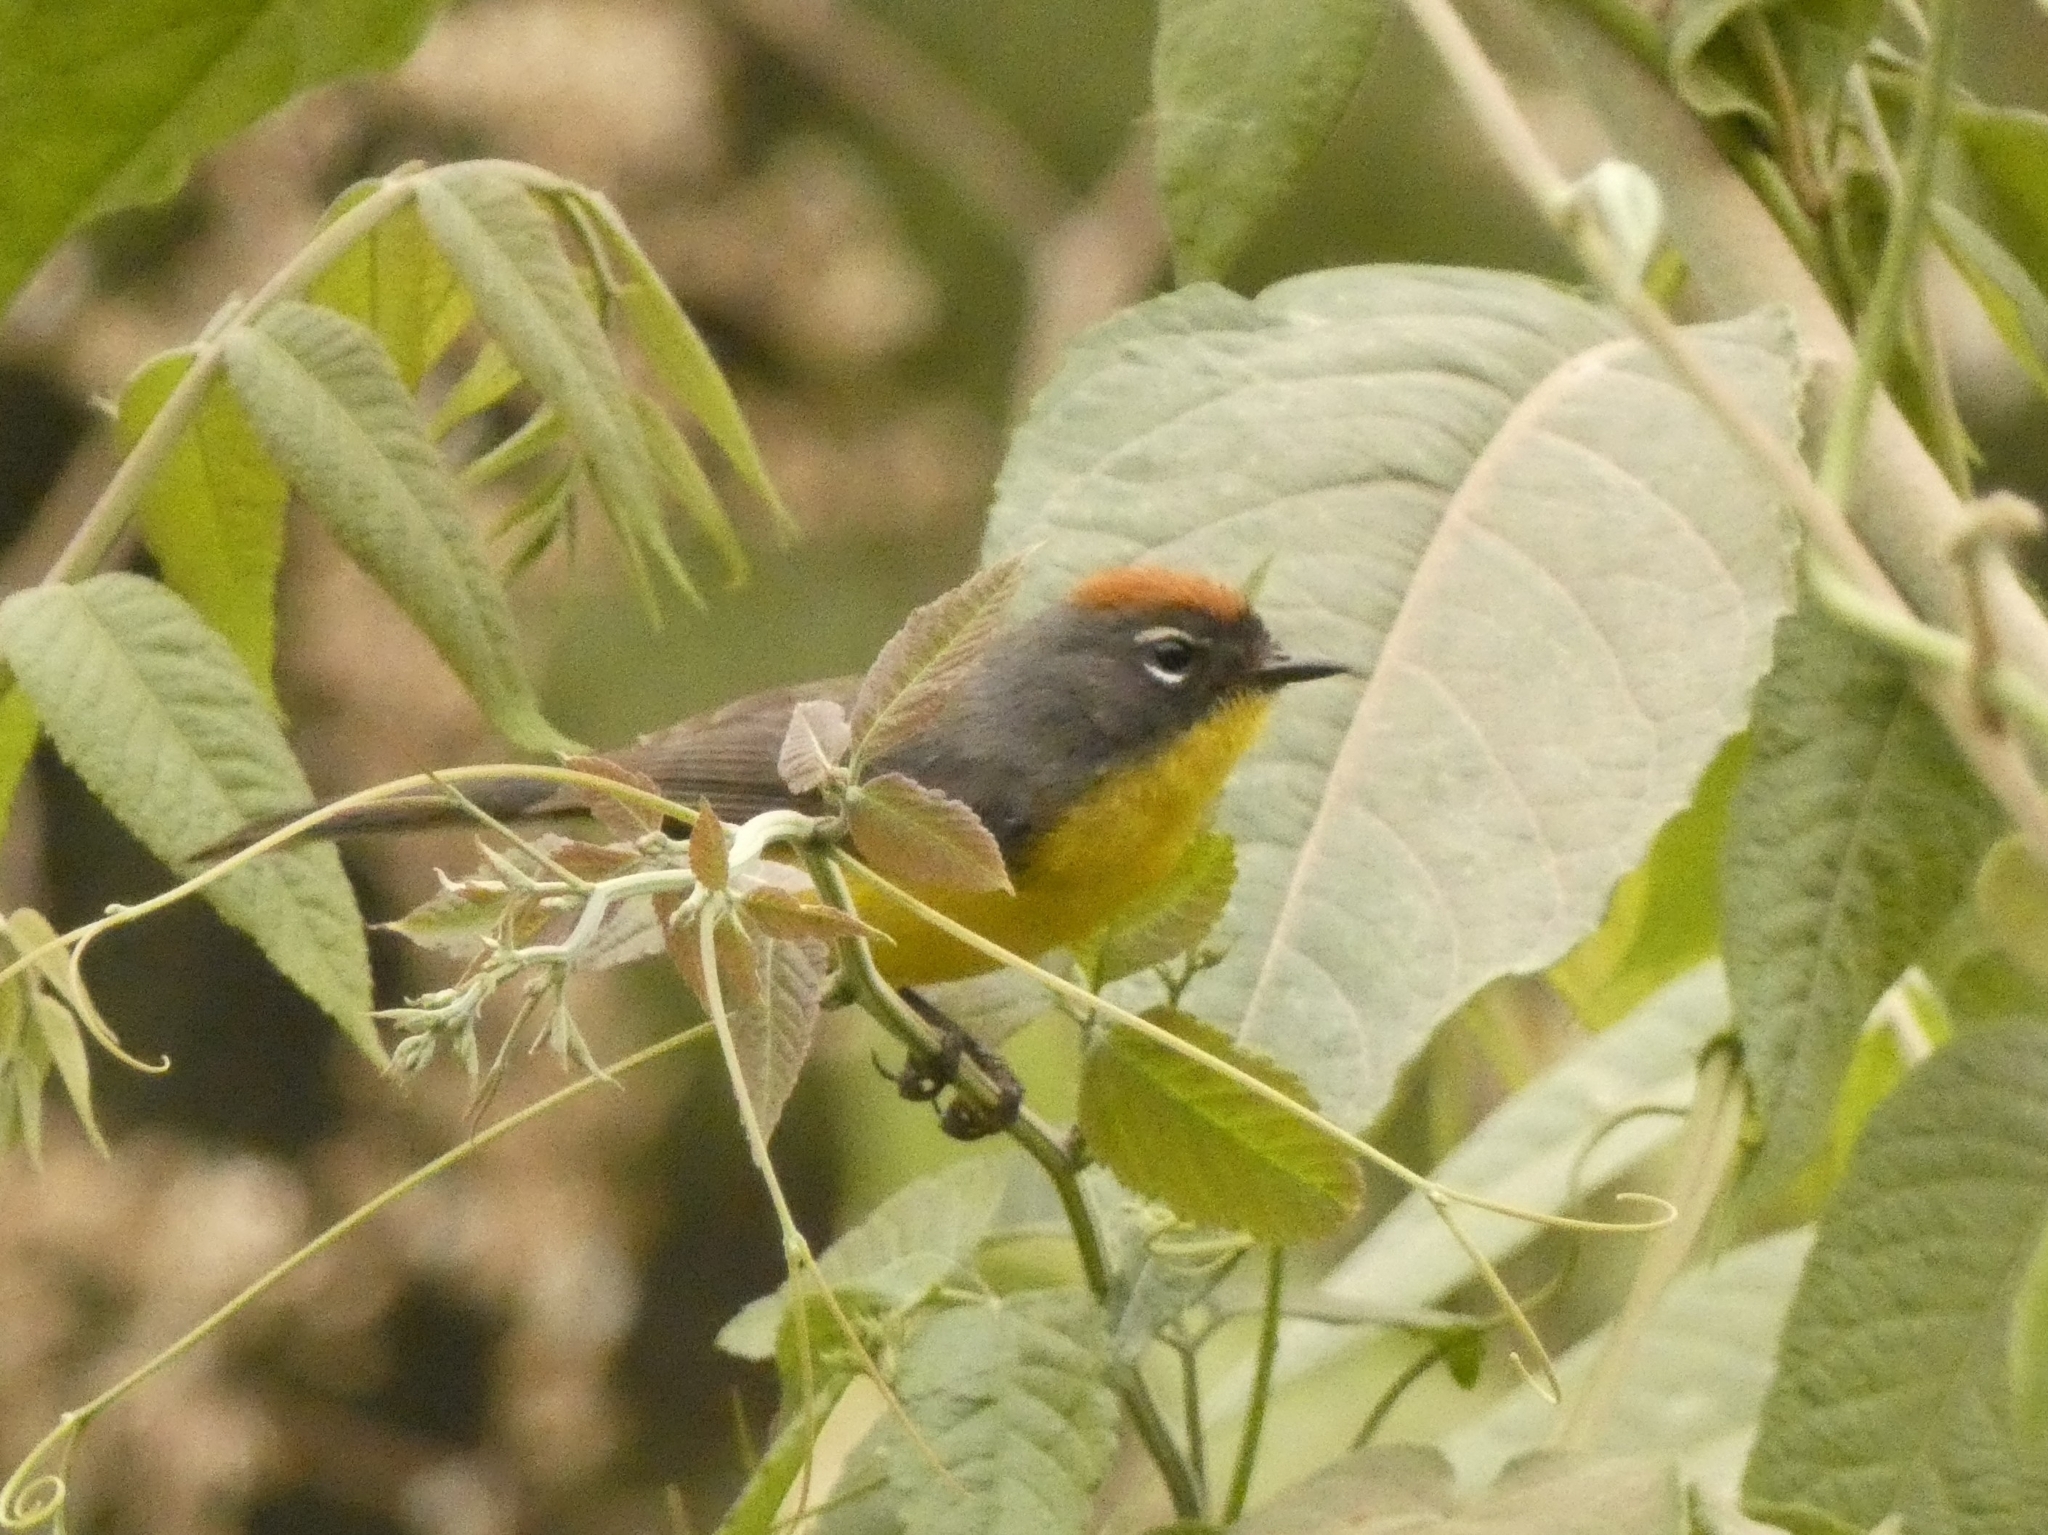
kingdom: Animalia
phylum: Chordata
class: Aves
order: Passeriformes
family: Parulidae
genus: Myioborus
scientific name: Myioborus brunniceps
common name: Brown-capped whitestart
